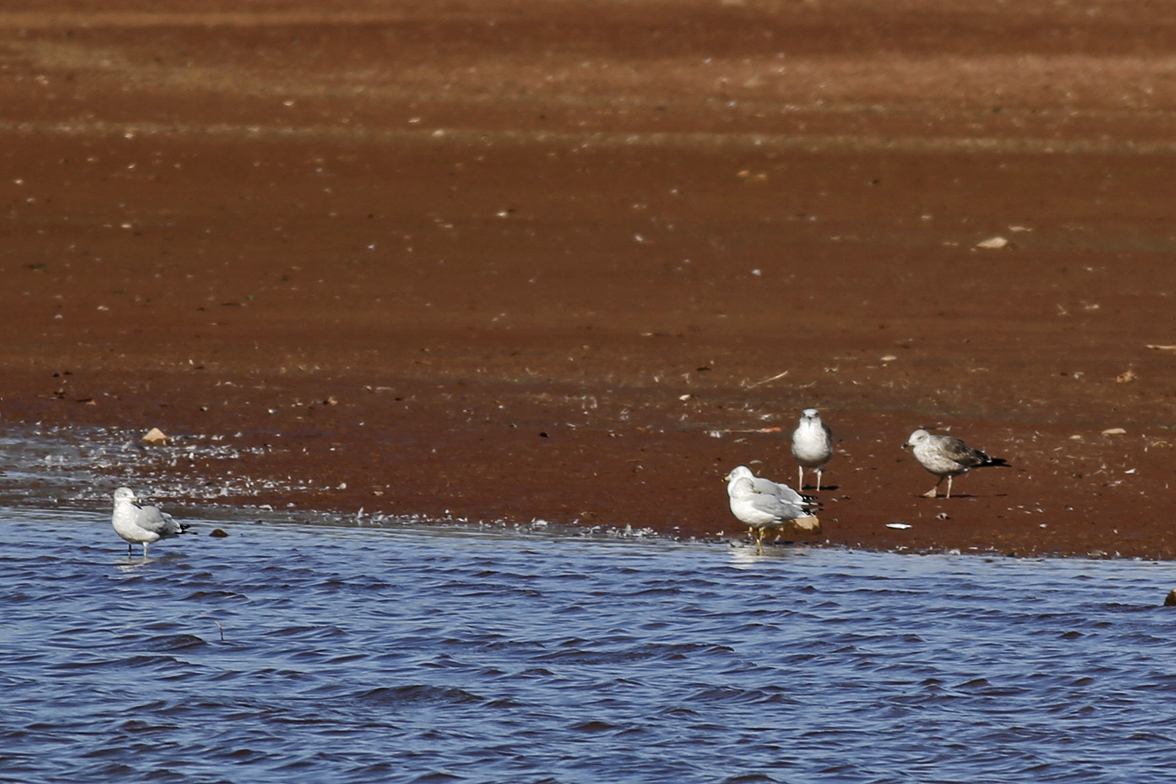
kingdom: Animalia
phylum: Chordata
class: Aves
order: Charadriiformes
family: Laridae
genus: Larus
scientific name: Larus delawarensis
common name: Ring-billed gull
